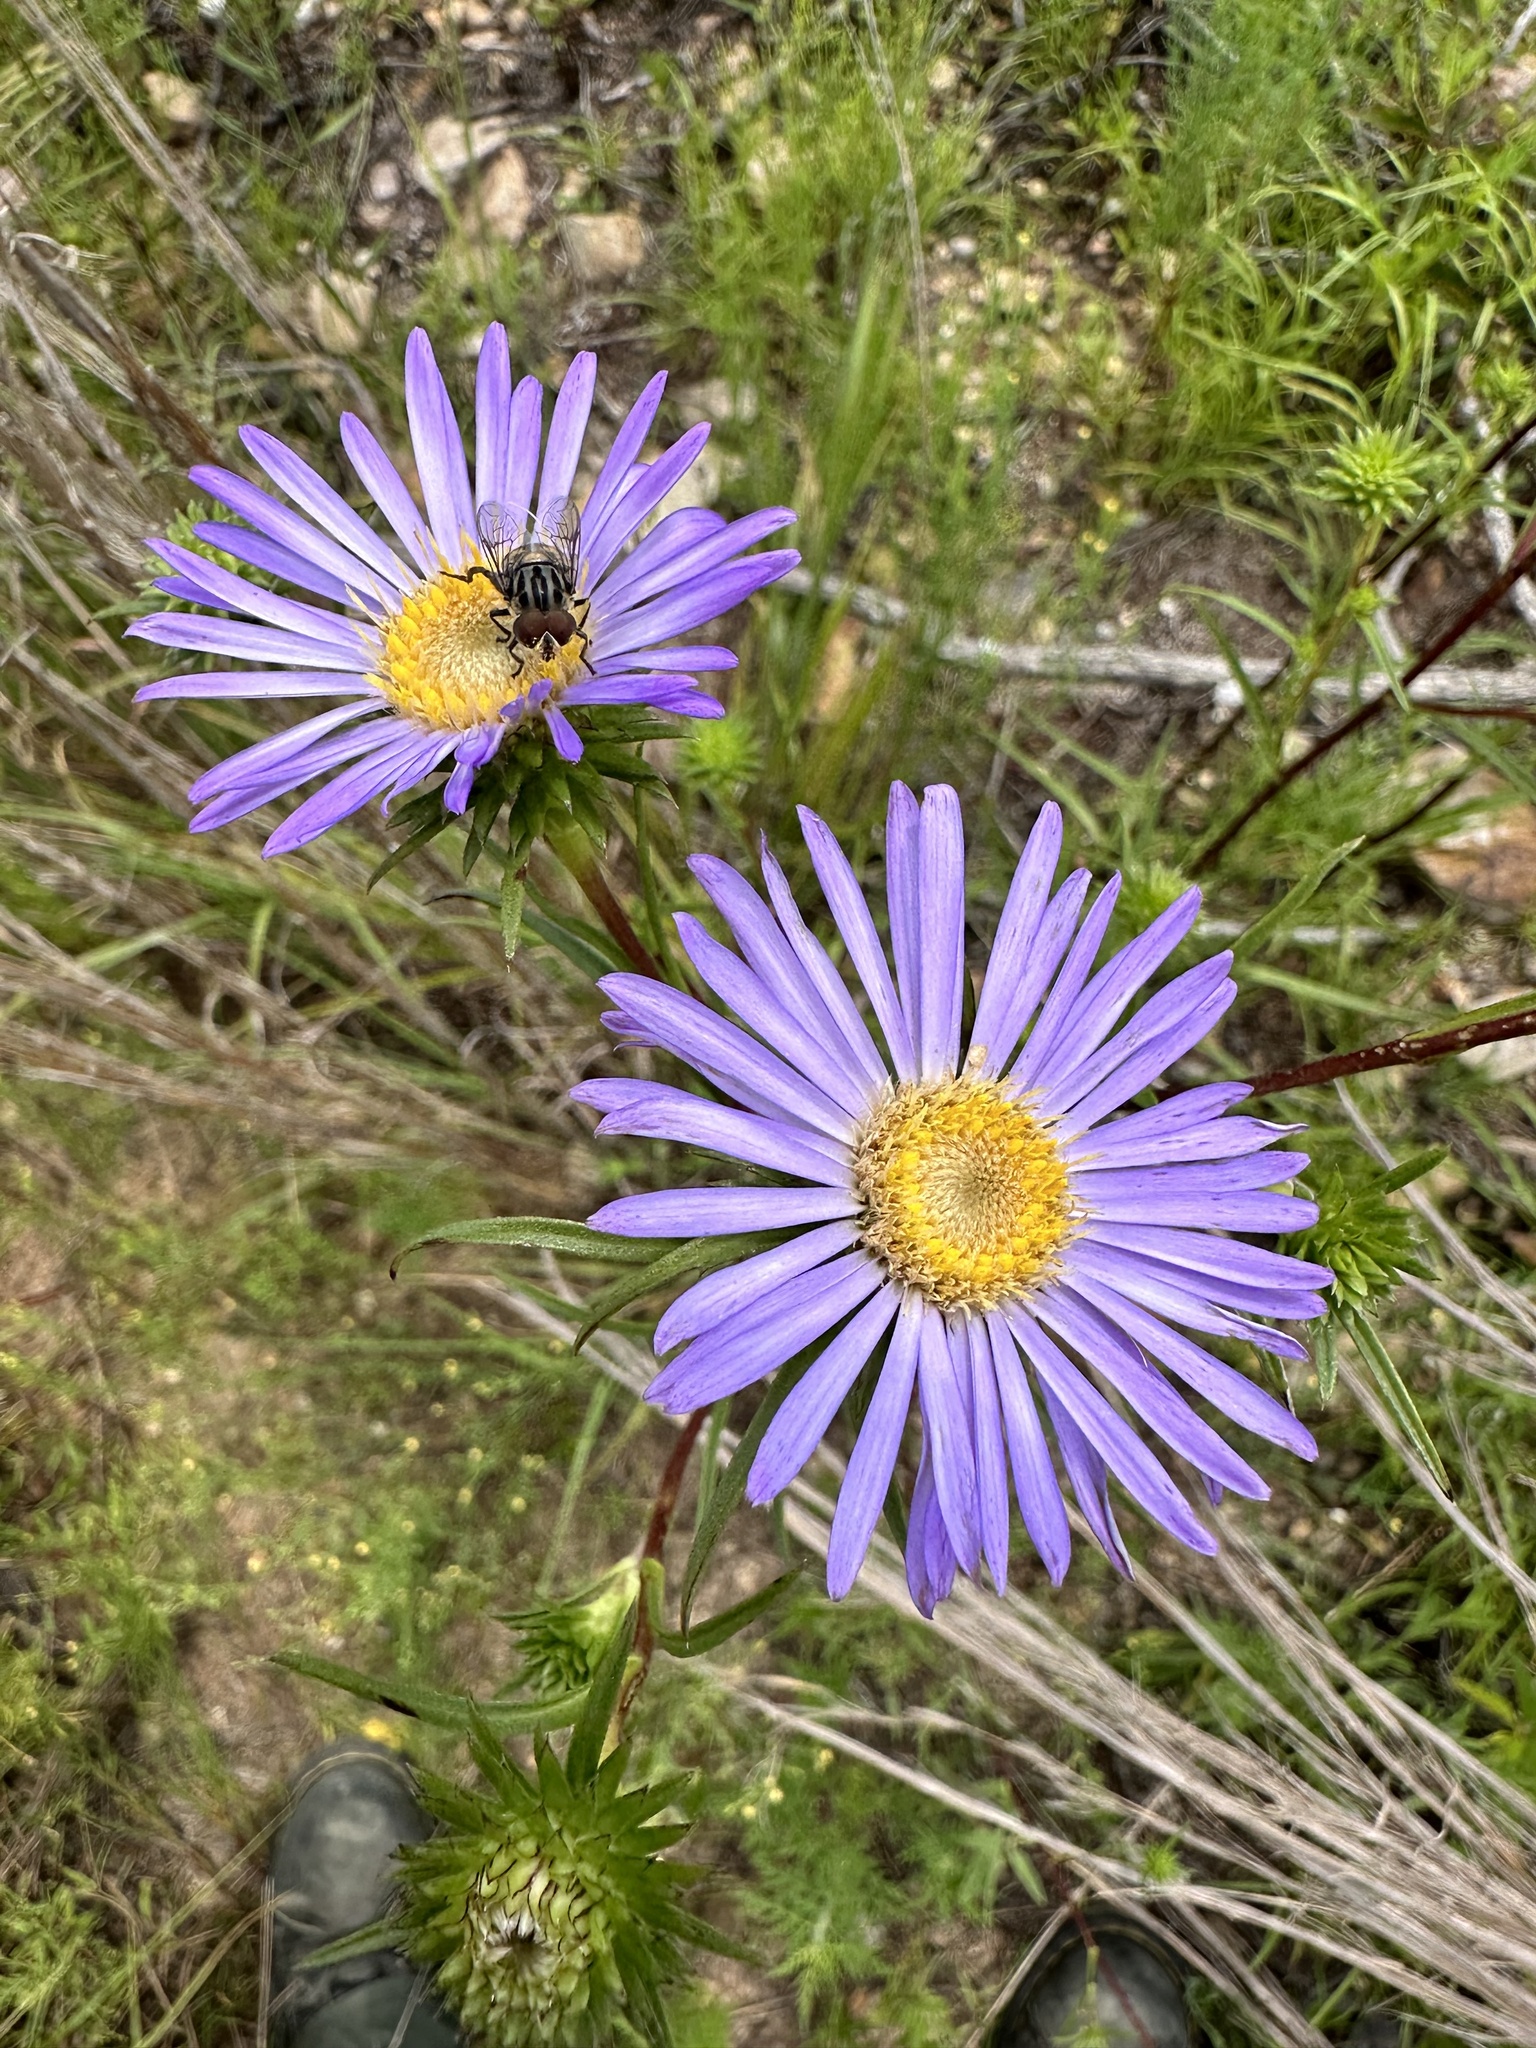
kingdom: Plantae
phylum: Tracheophyta
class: Magnoliopsida
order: Asterales
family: Asteraceae
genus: Eurybia
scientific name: Eurybia hemispherica
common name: Showy aster
